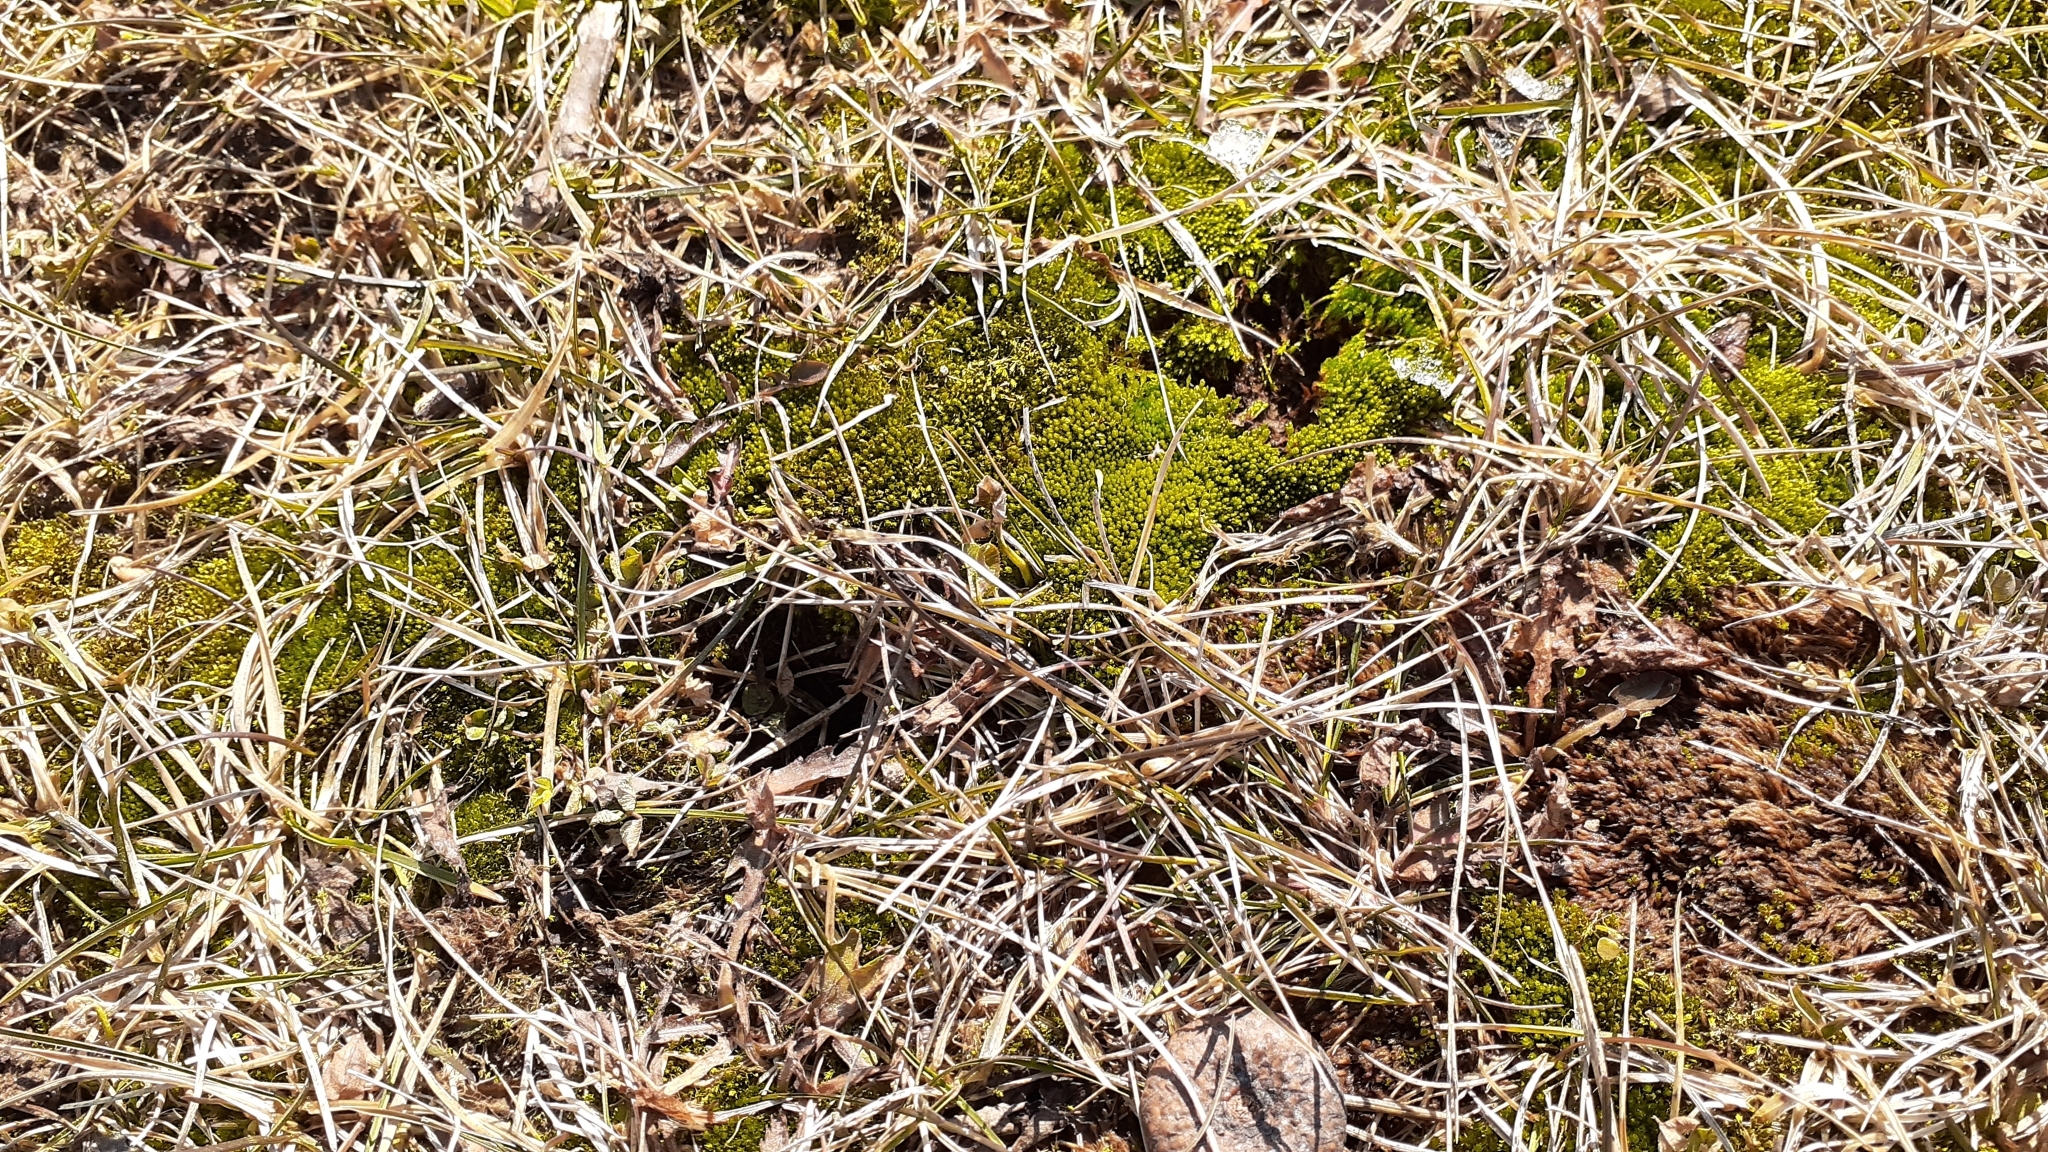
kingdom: Plantae
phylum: Bryophyta
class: Bryopsida
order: Bryales
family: Bryaceae
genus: Bryum
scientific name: Bryum argenteum
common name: Silver-moss
